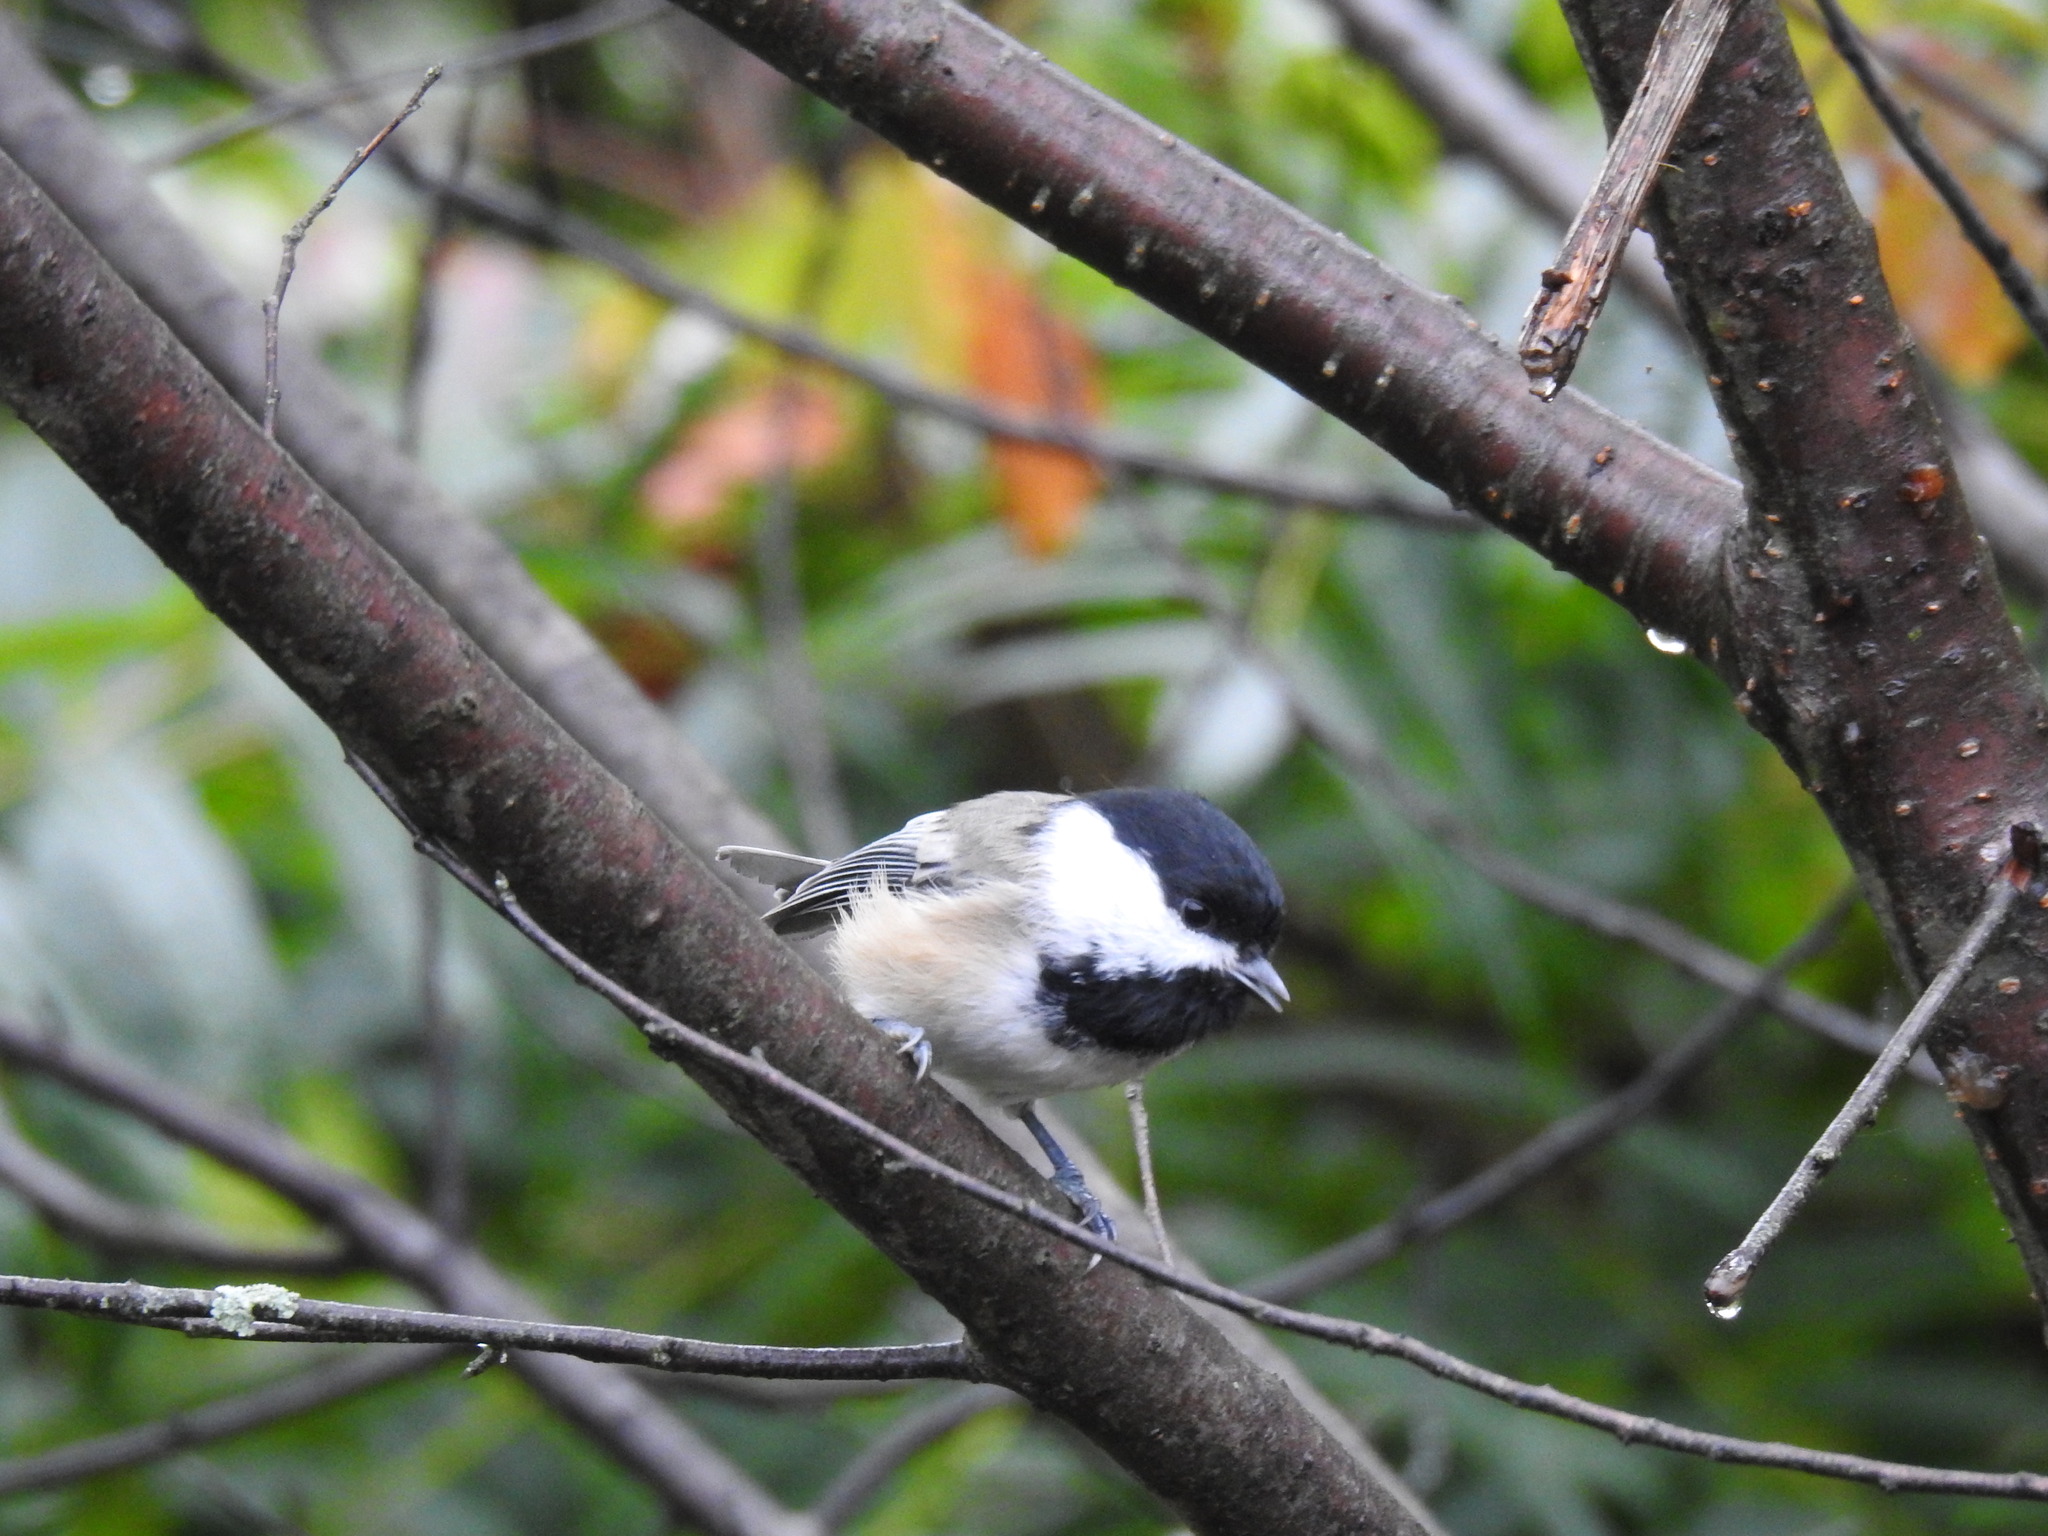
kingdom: Animalia
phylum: Chordata
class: Aves
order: Passeriformes
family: Paridae
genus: Poecile
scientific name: Poecile atricapillus
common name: Black-capped chickadee
